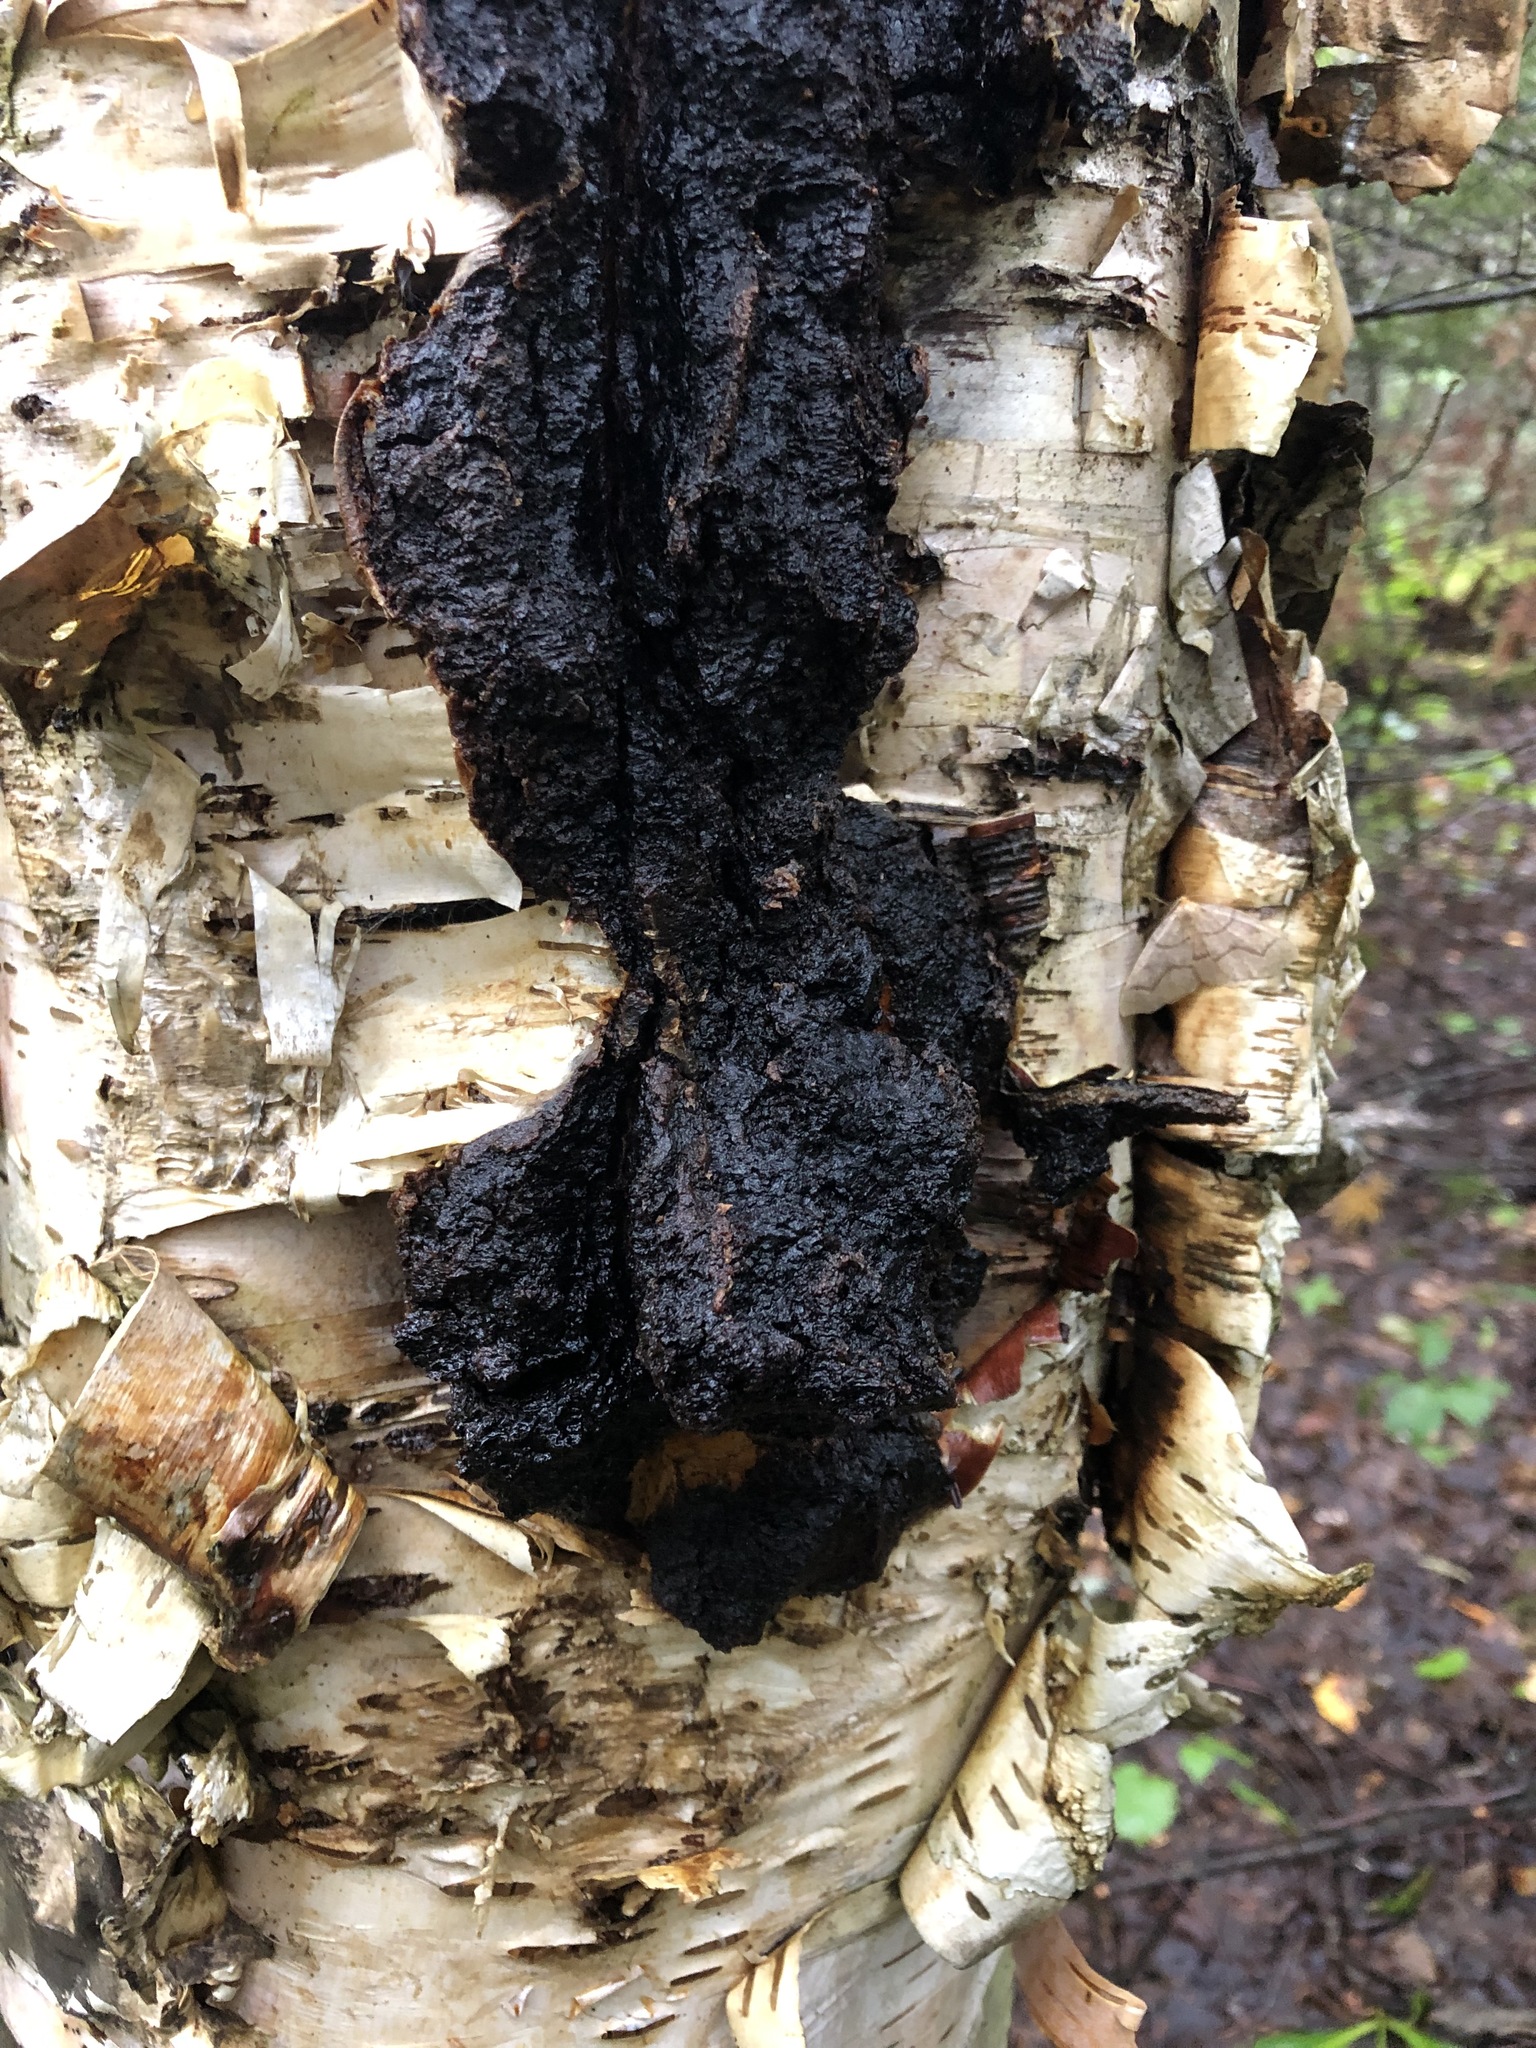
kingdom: Fungi
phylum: Basidiomycota
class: Agaricomycetes
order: Hymenochaetales
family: Hymenochaetaceae
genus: Inonotus
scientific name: Inonotus obliquus
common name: Chaga
